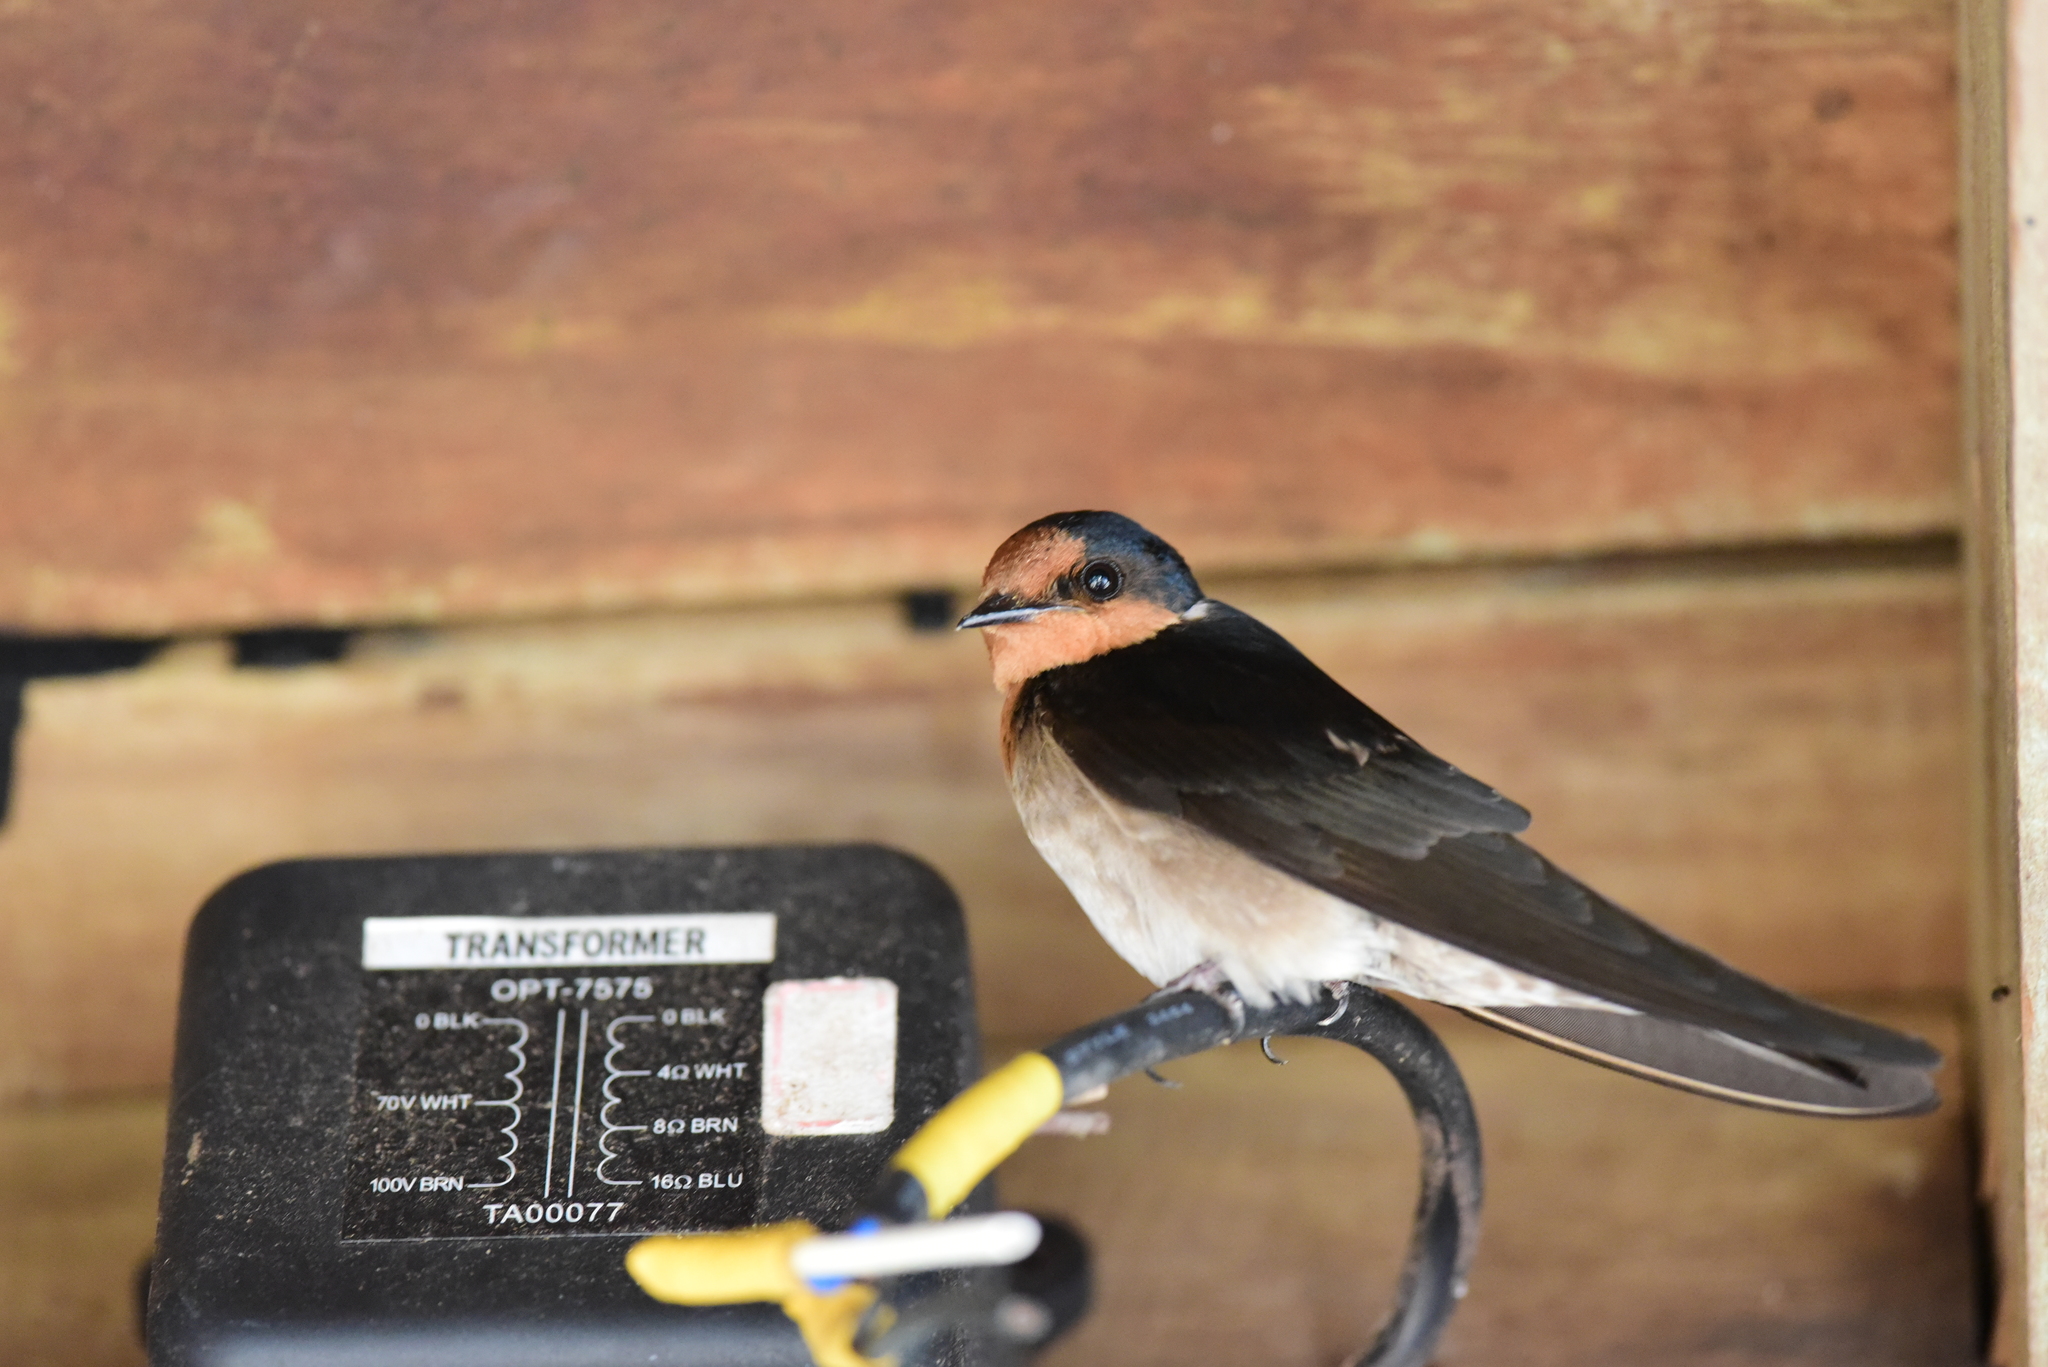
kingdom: Animalia
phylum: Chordata
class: Aves
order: Passeriformes
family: Hirundinidae
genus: Hirundo
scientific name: Hirundo tahitica
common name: Pacific swallow
